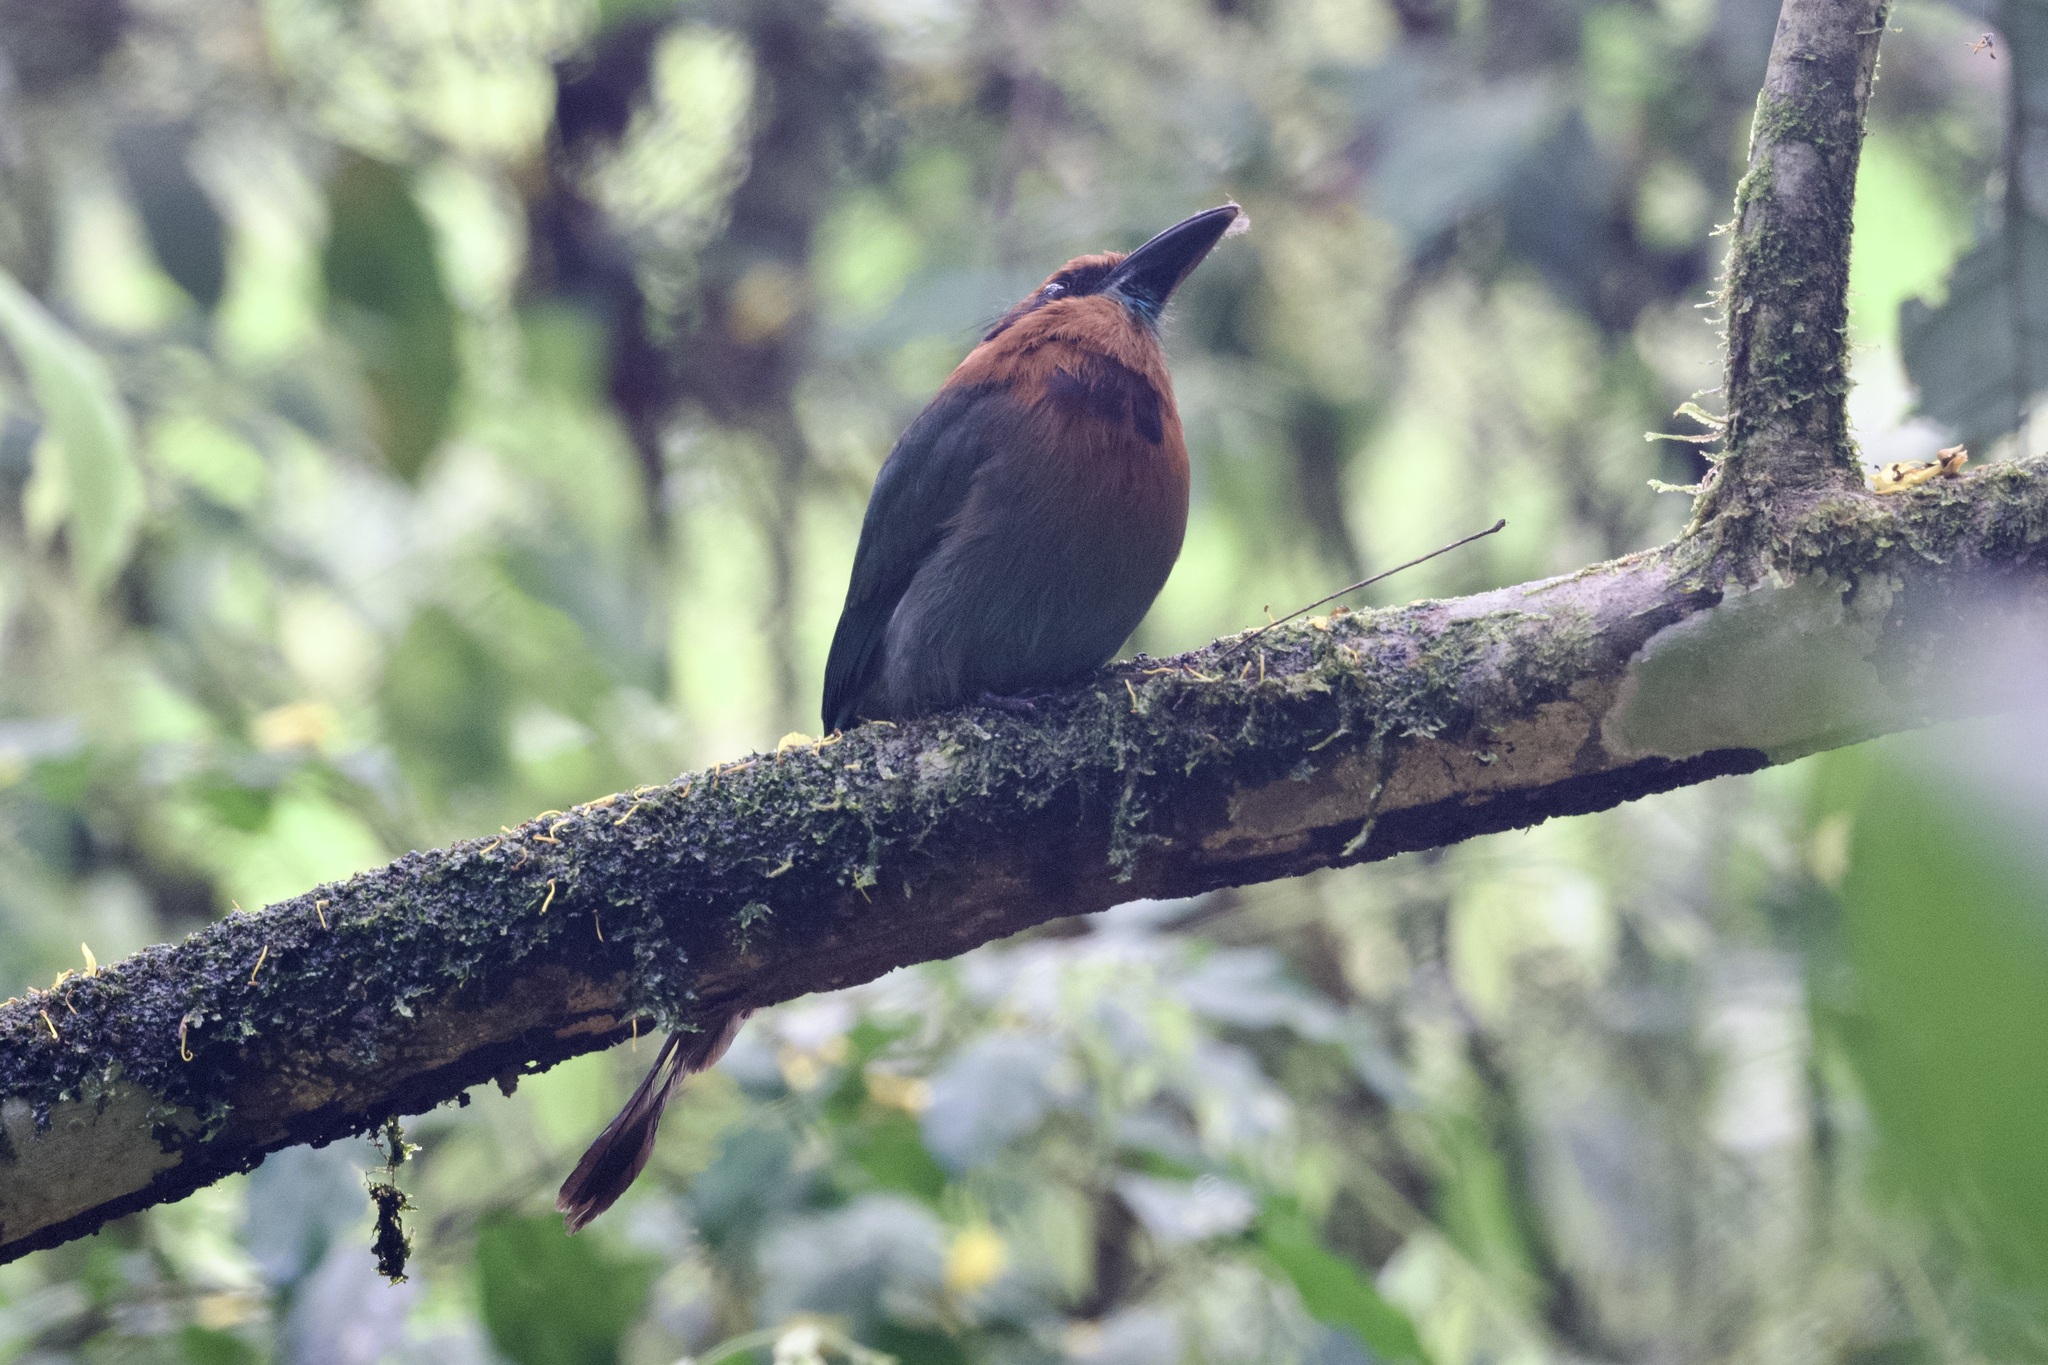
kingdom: Animalia
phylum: Chordata
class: Aves
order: Coraciiformes
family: Momotidae
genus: Electron
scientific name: Electron platyrhynchum
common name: Broad-billed motmot
